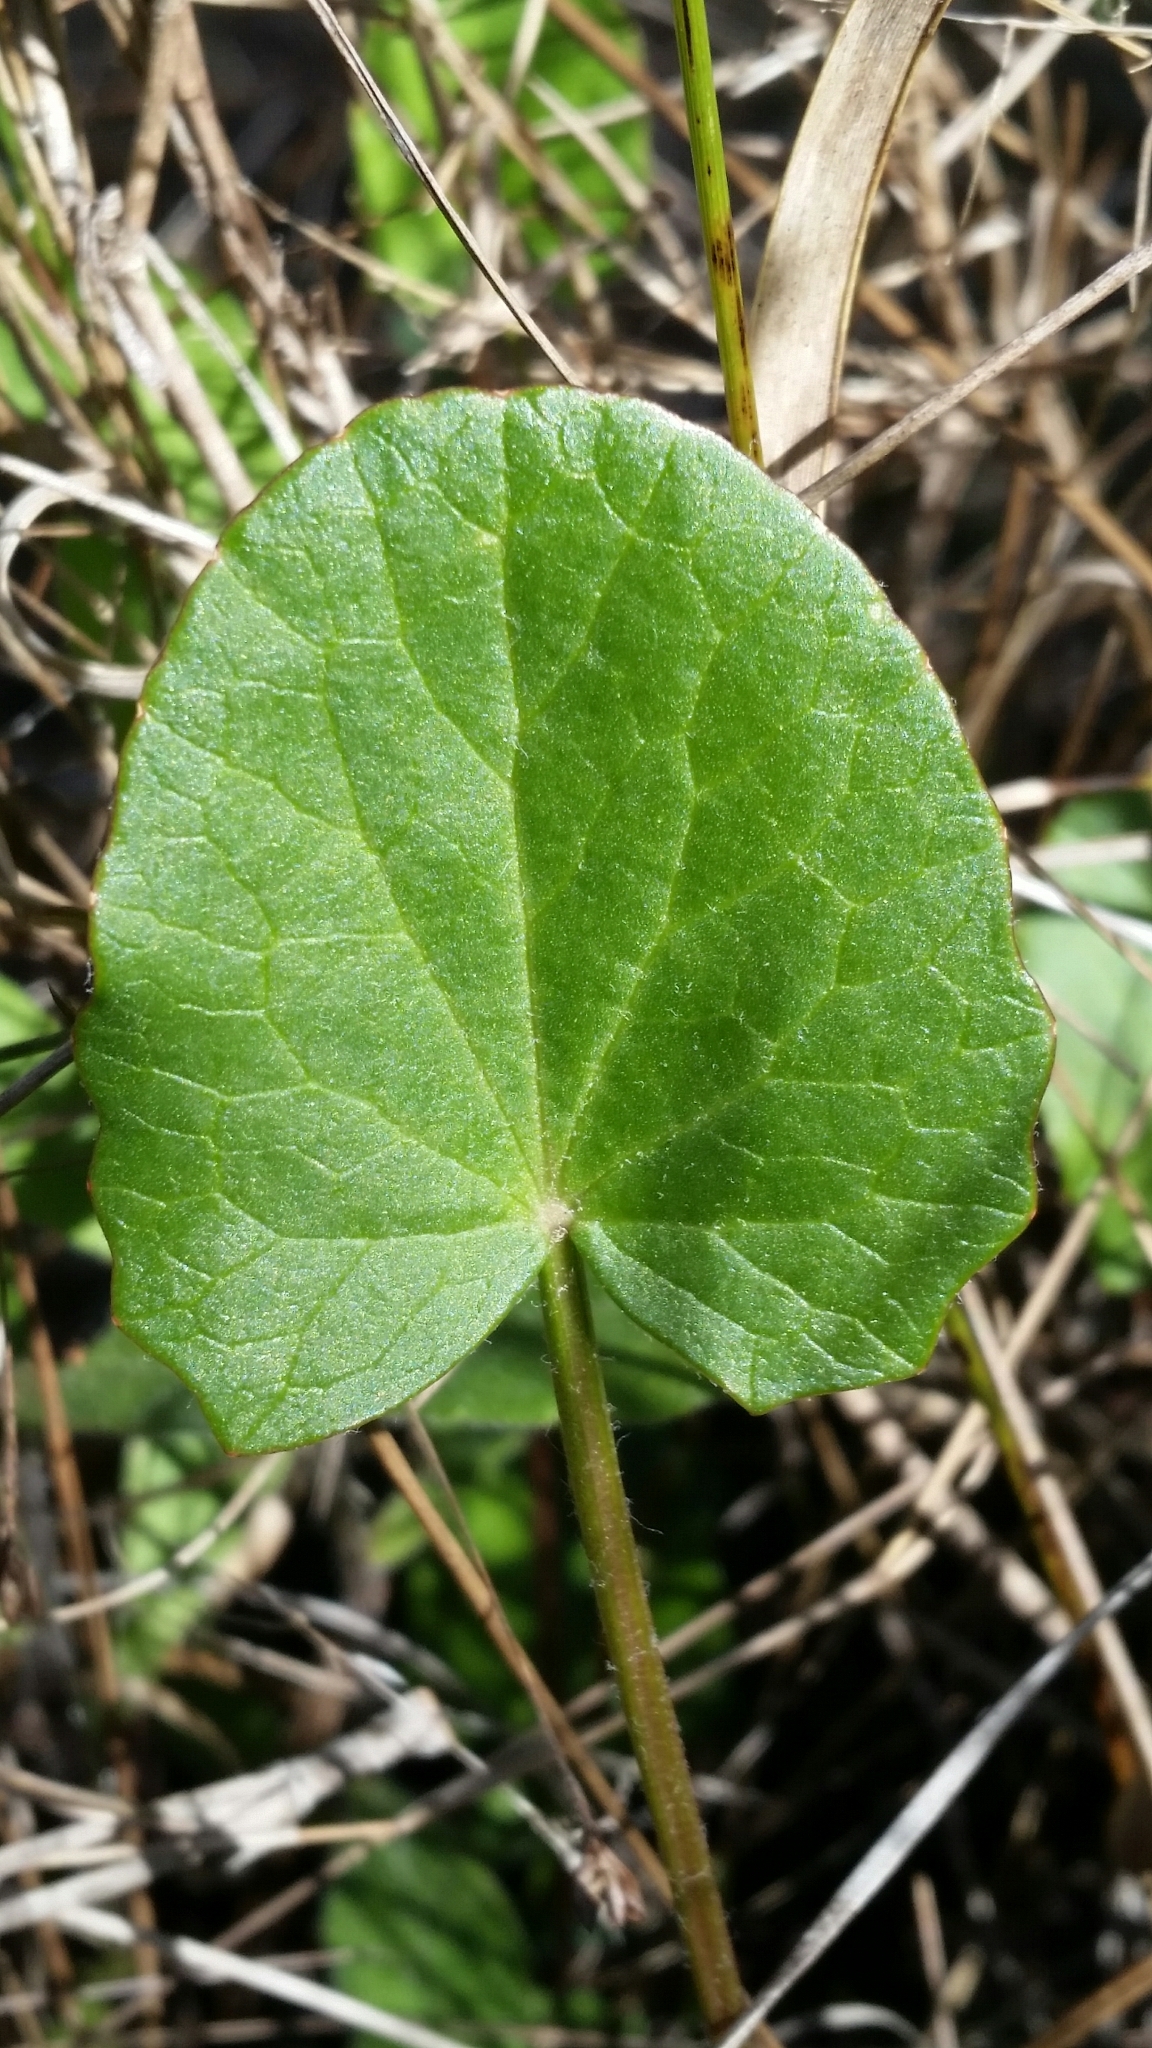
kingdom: Plantae
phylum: Tracheophyta
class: Magnoliopsida
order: Apiales
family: Apiaceae
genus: Centella
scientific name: Centella erecta
